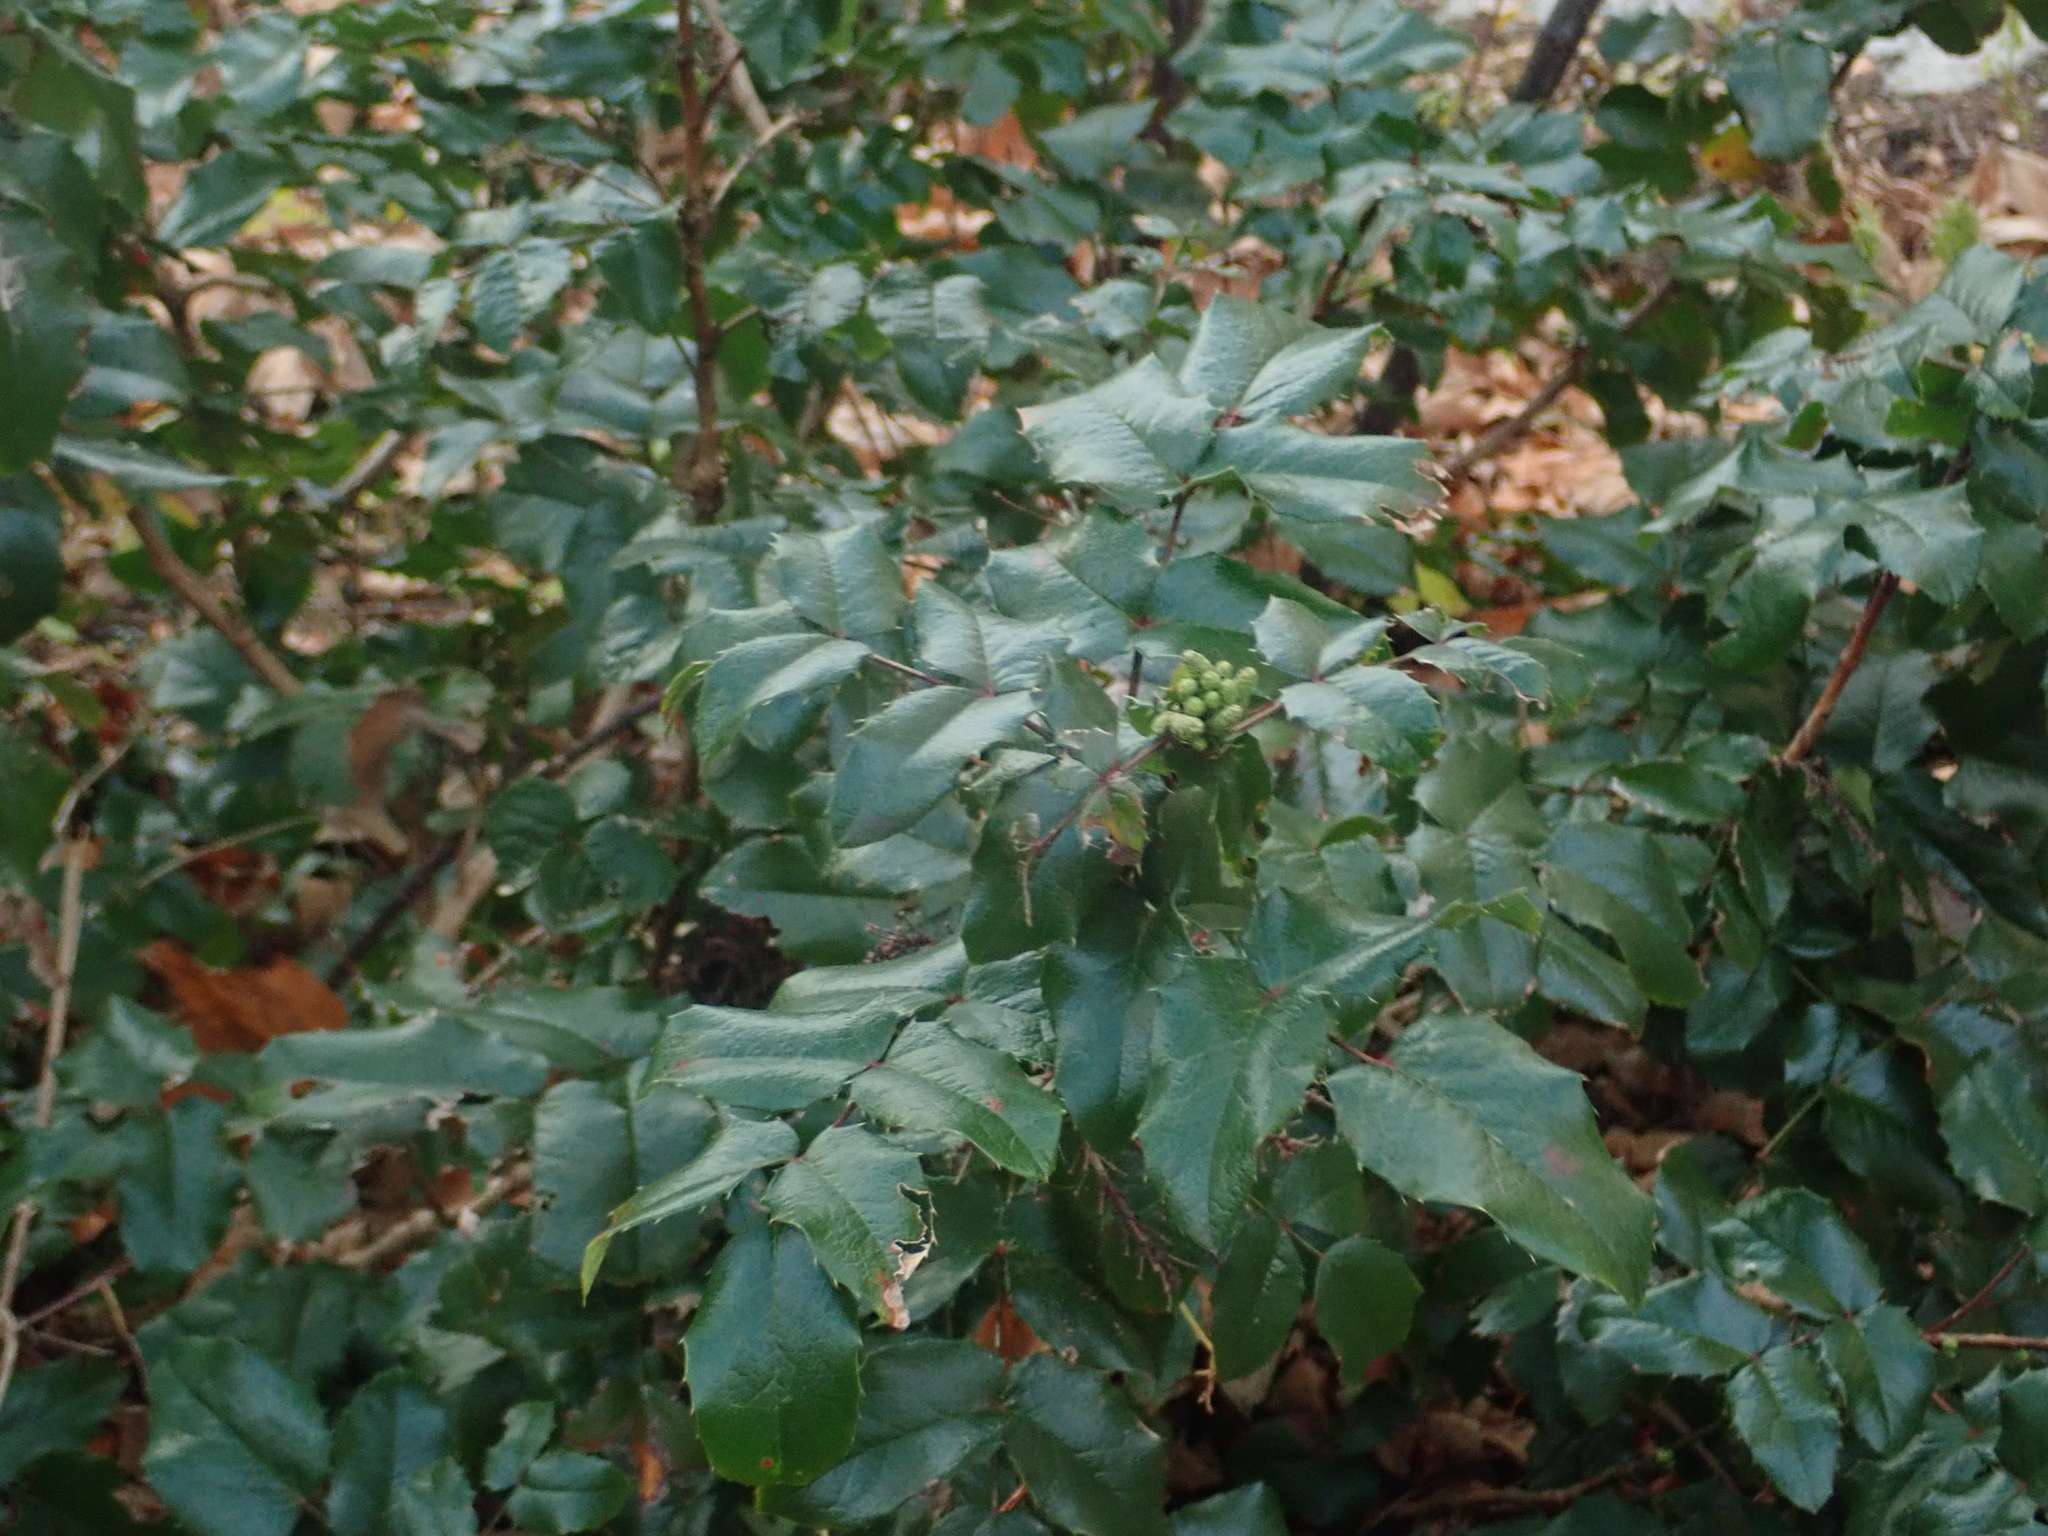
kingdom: Plantae
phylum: Tracheophyta
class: Magnoliopsida
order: Ranunculales
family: Berberidaceae
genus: Mahonia
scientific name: Mahonia aquifolium
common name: Oregon-grape
